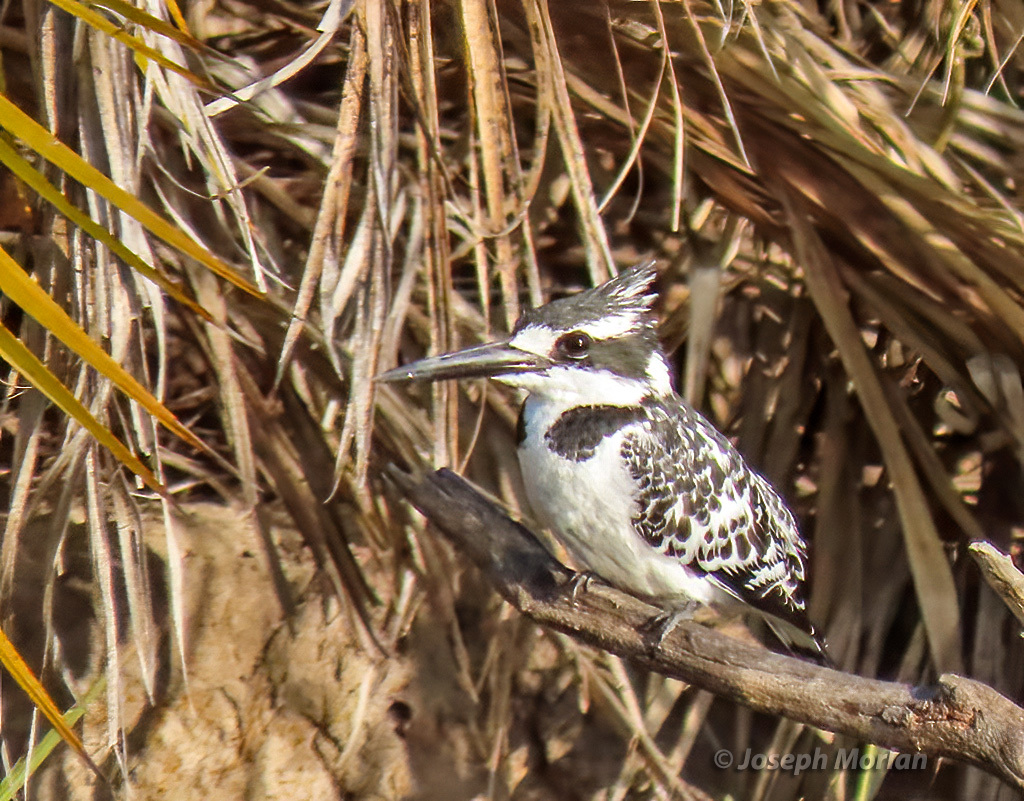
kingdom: Animalia
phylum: Chordata
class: Aves
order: Coraciiformes
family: Alcedinidae
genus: Ceryle
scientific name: Ceryle rudis
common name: Pied kingfisher
